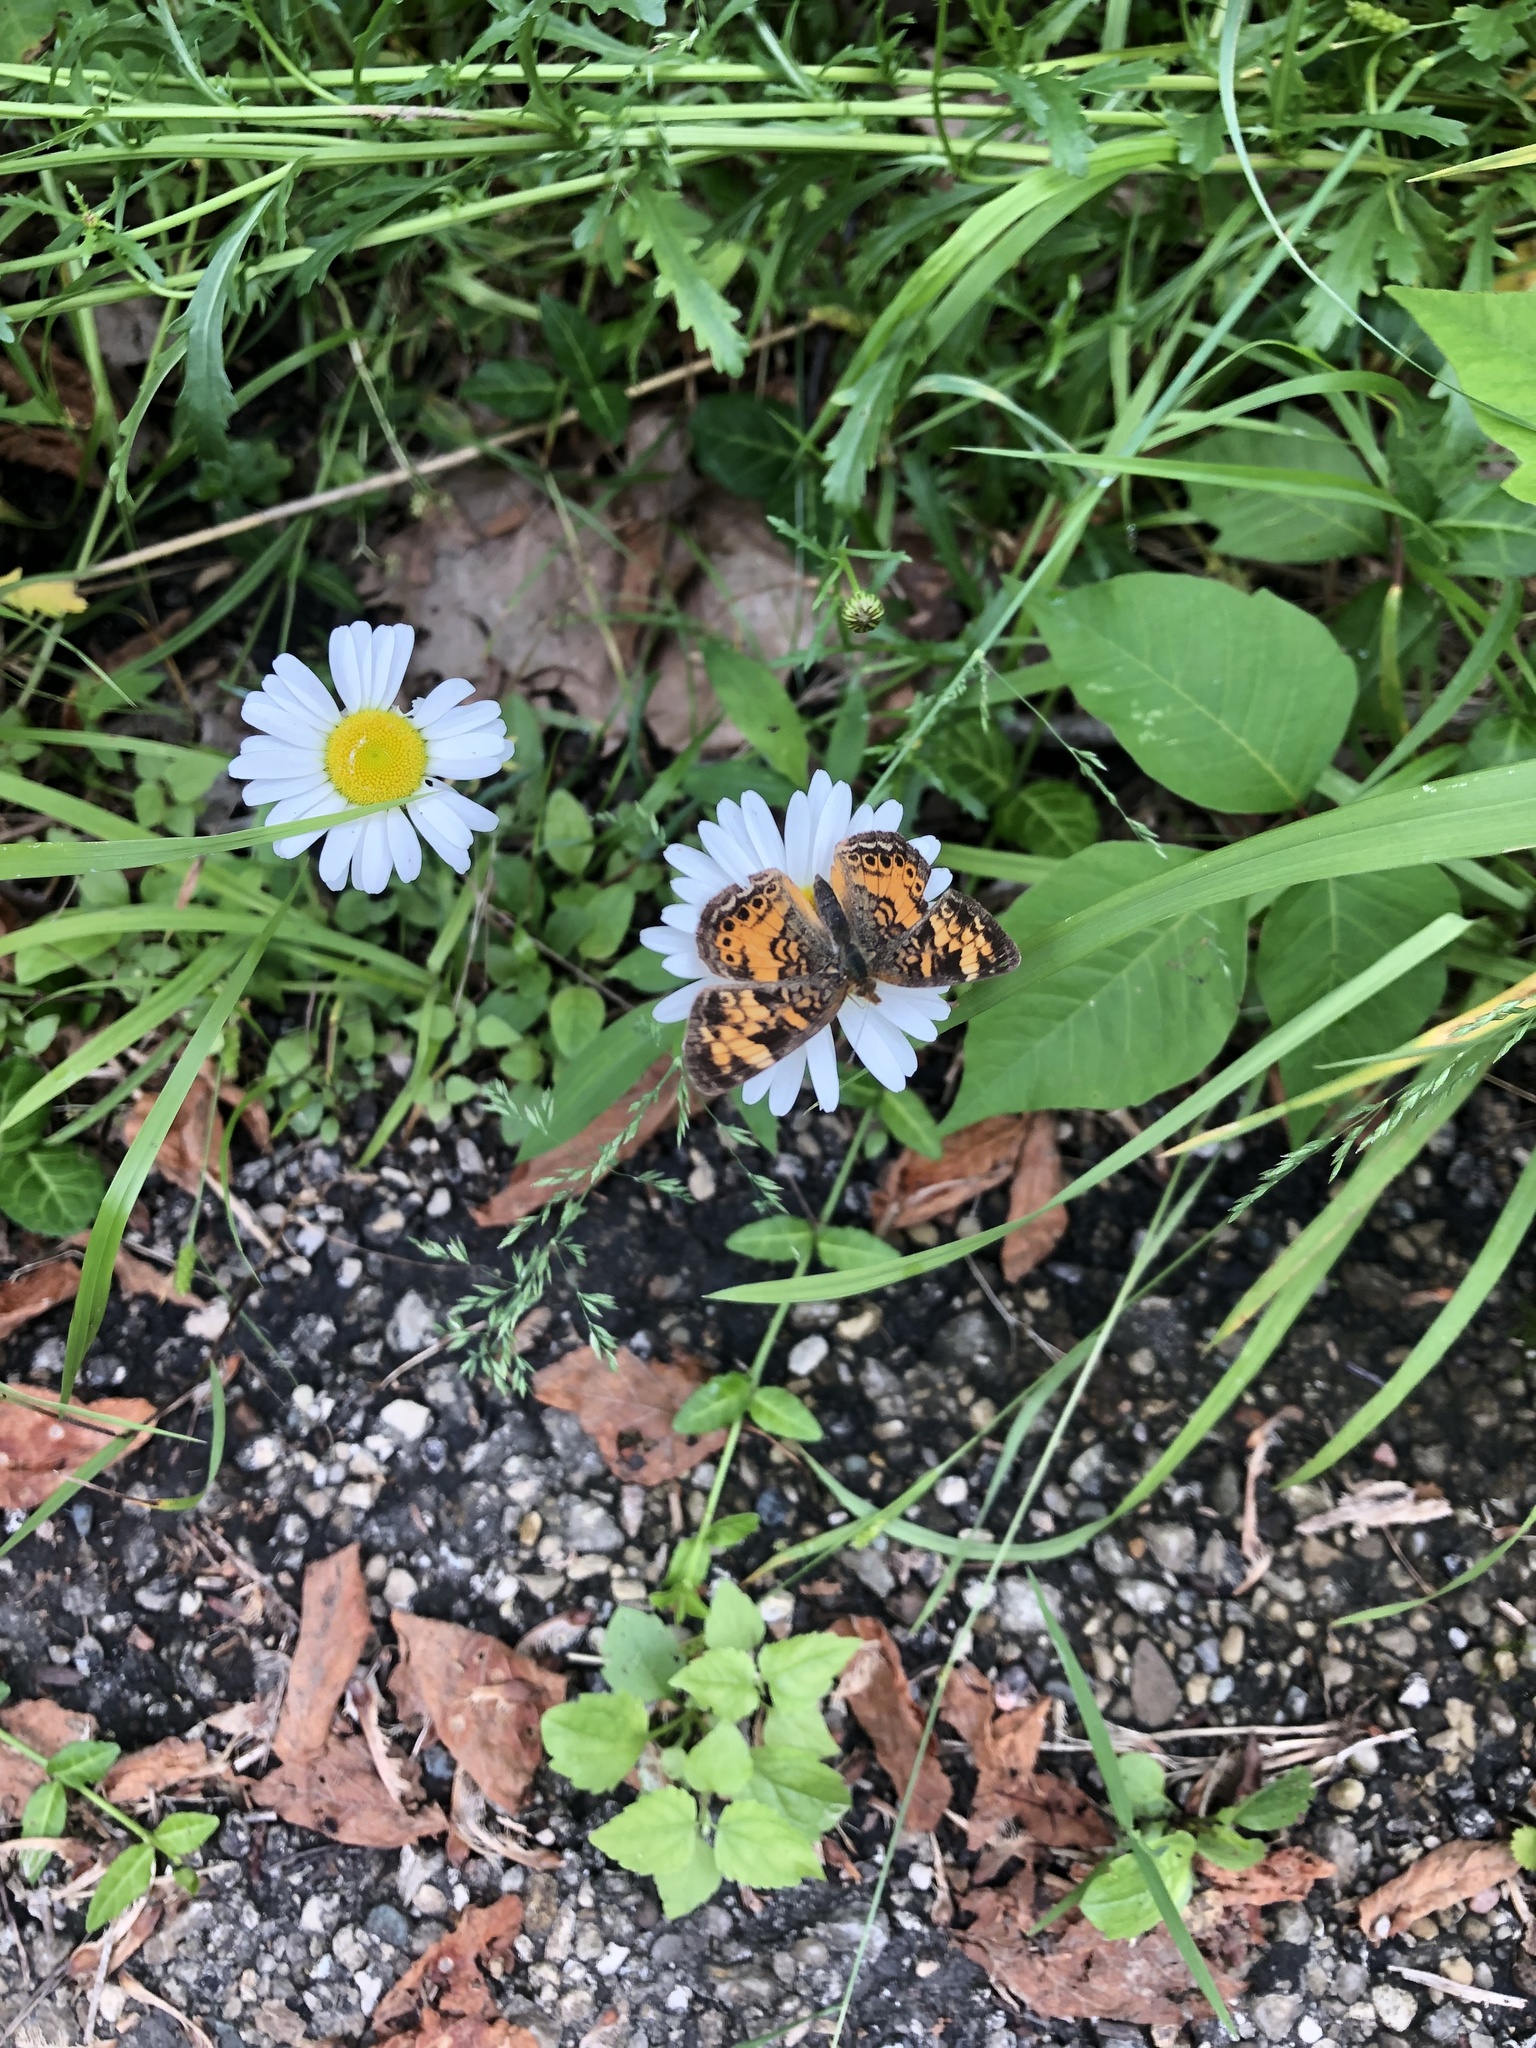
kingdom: Animalia
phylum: Arthropoda
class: Insecta
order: Lepidoptera
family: Nymphalidae
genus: Phyciodes
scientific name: Phyciodes tharos
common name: Pearl crescent
